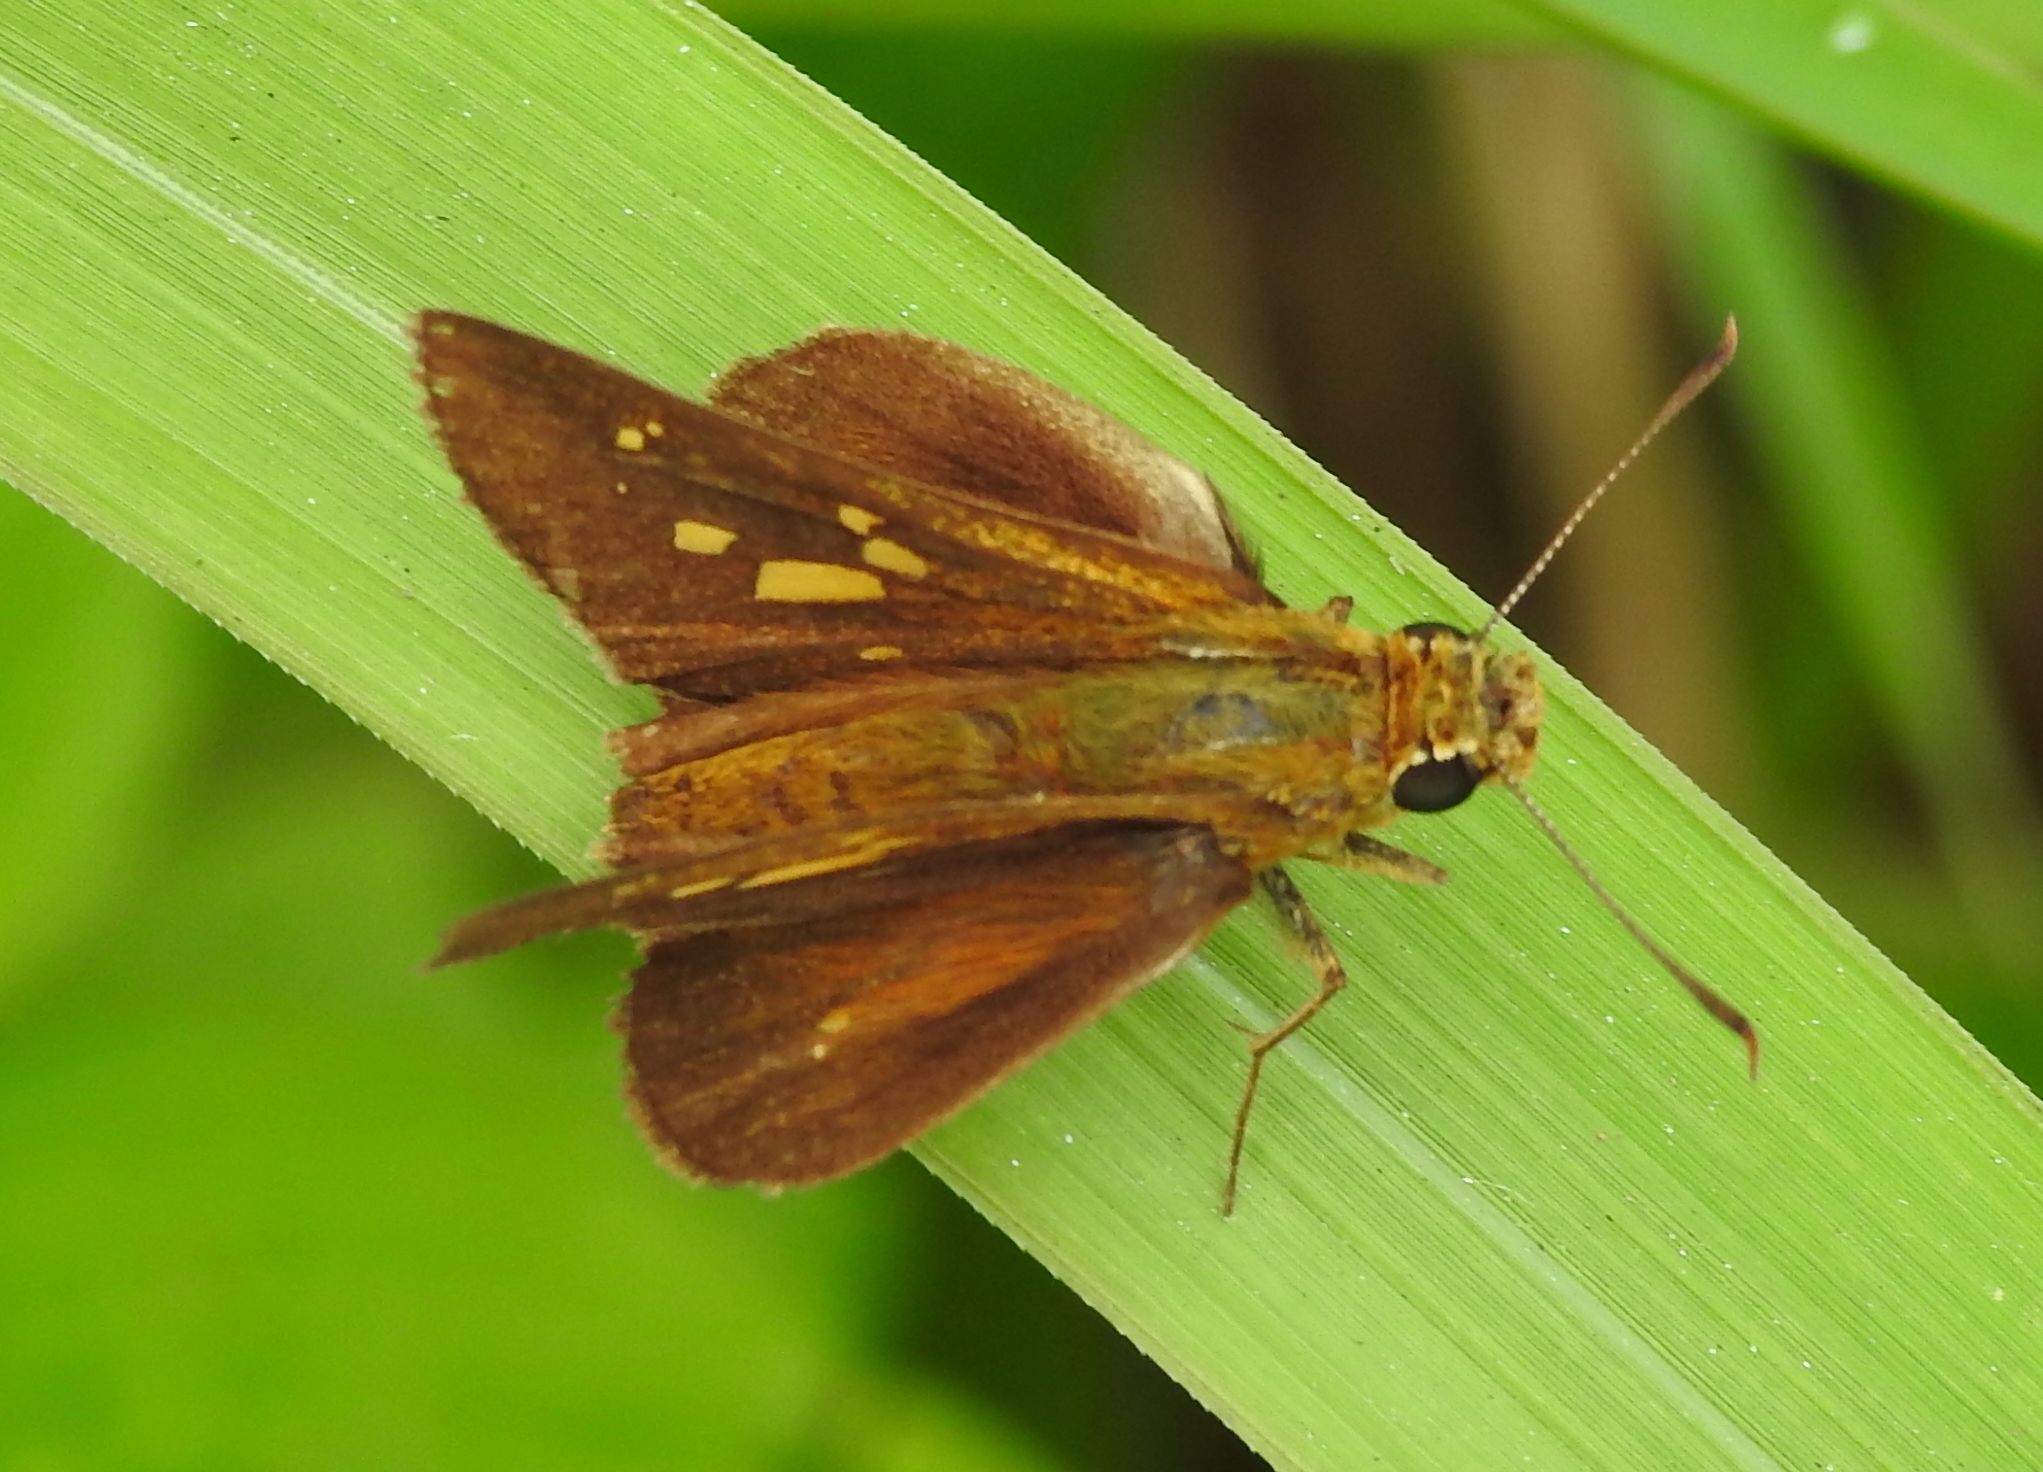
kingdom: Animalia
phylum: Arthropoda
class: Insecta
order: Lepidoptera
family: Hesperiidae
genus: Polytremis
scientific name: Polytremis lubricans
